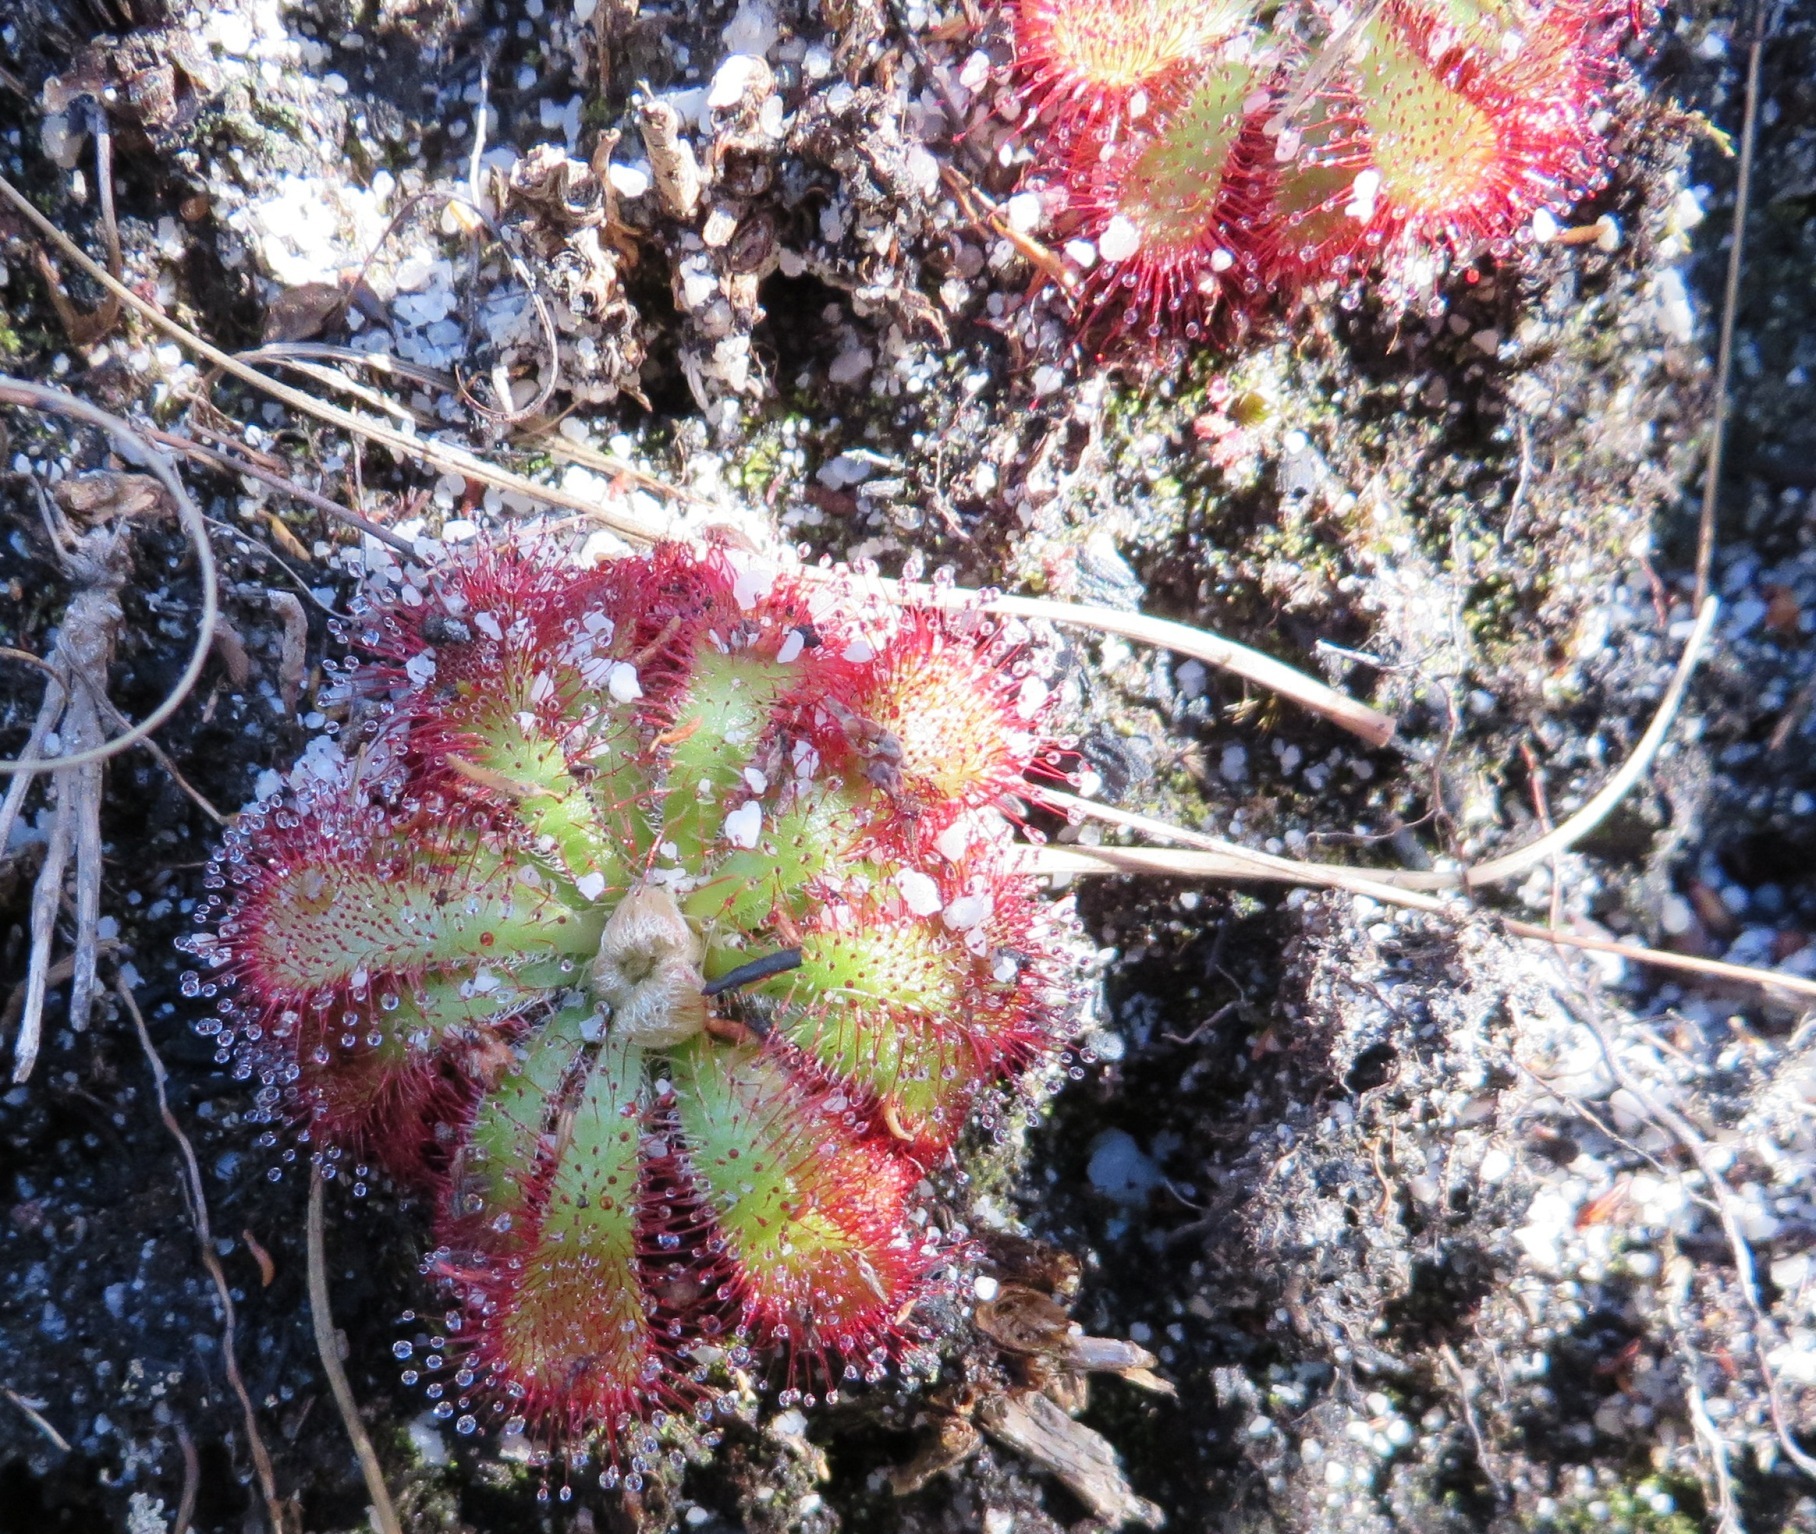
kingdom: Plantae
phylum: Tracheophyta
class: Magnoliopsida
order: Caryophyllales
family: Droseraceae
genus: Drosera
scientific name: Drosera aliciae
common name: Alice sundew
